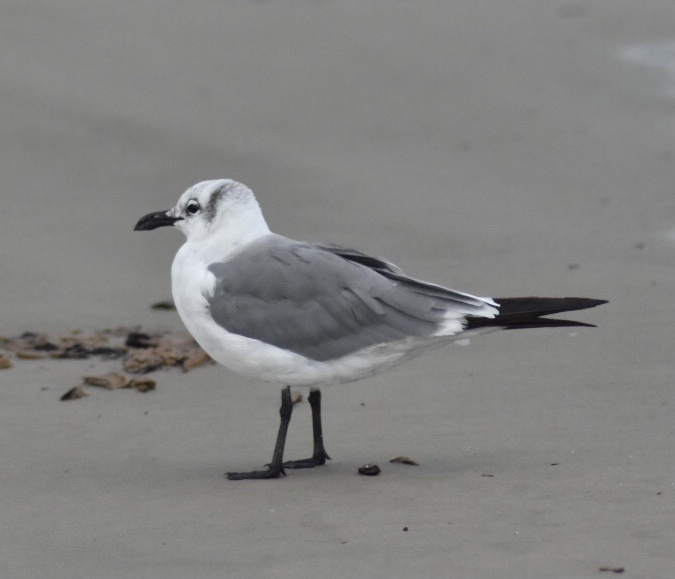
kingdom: Animalia
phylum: Chordata
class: Aves
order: Charadriiformes
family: Laridae
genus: Leucophaeus
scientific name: Leucophaeus atricilla
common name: Laughing gull
